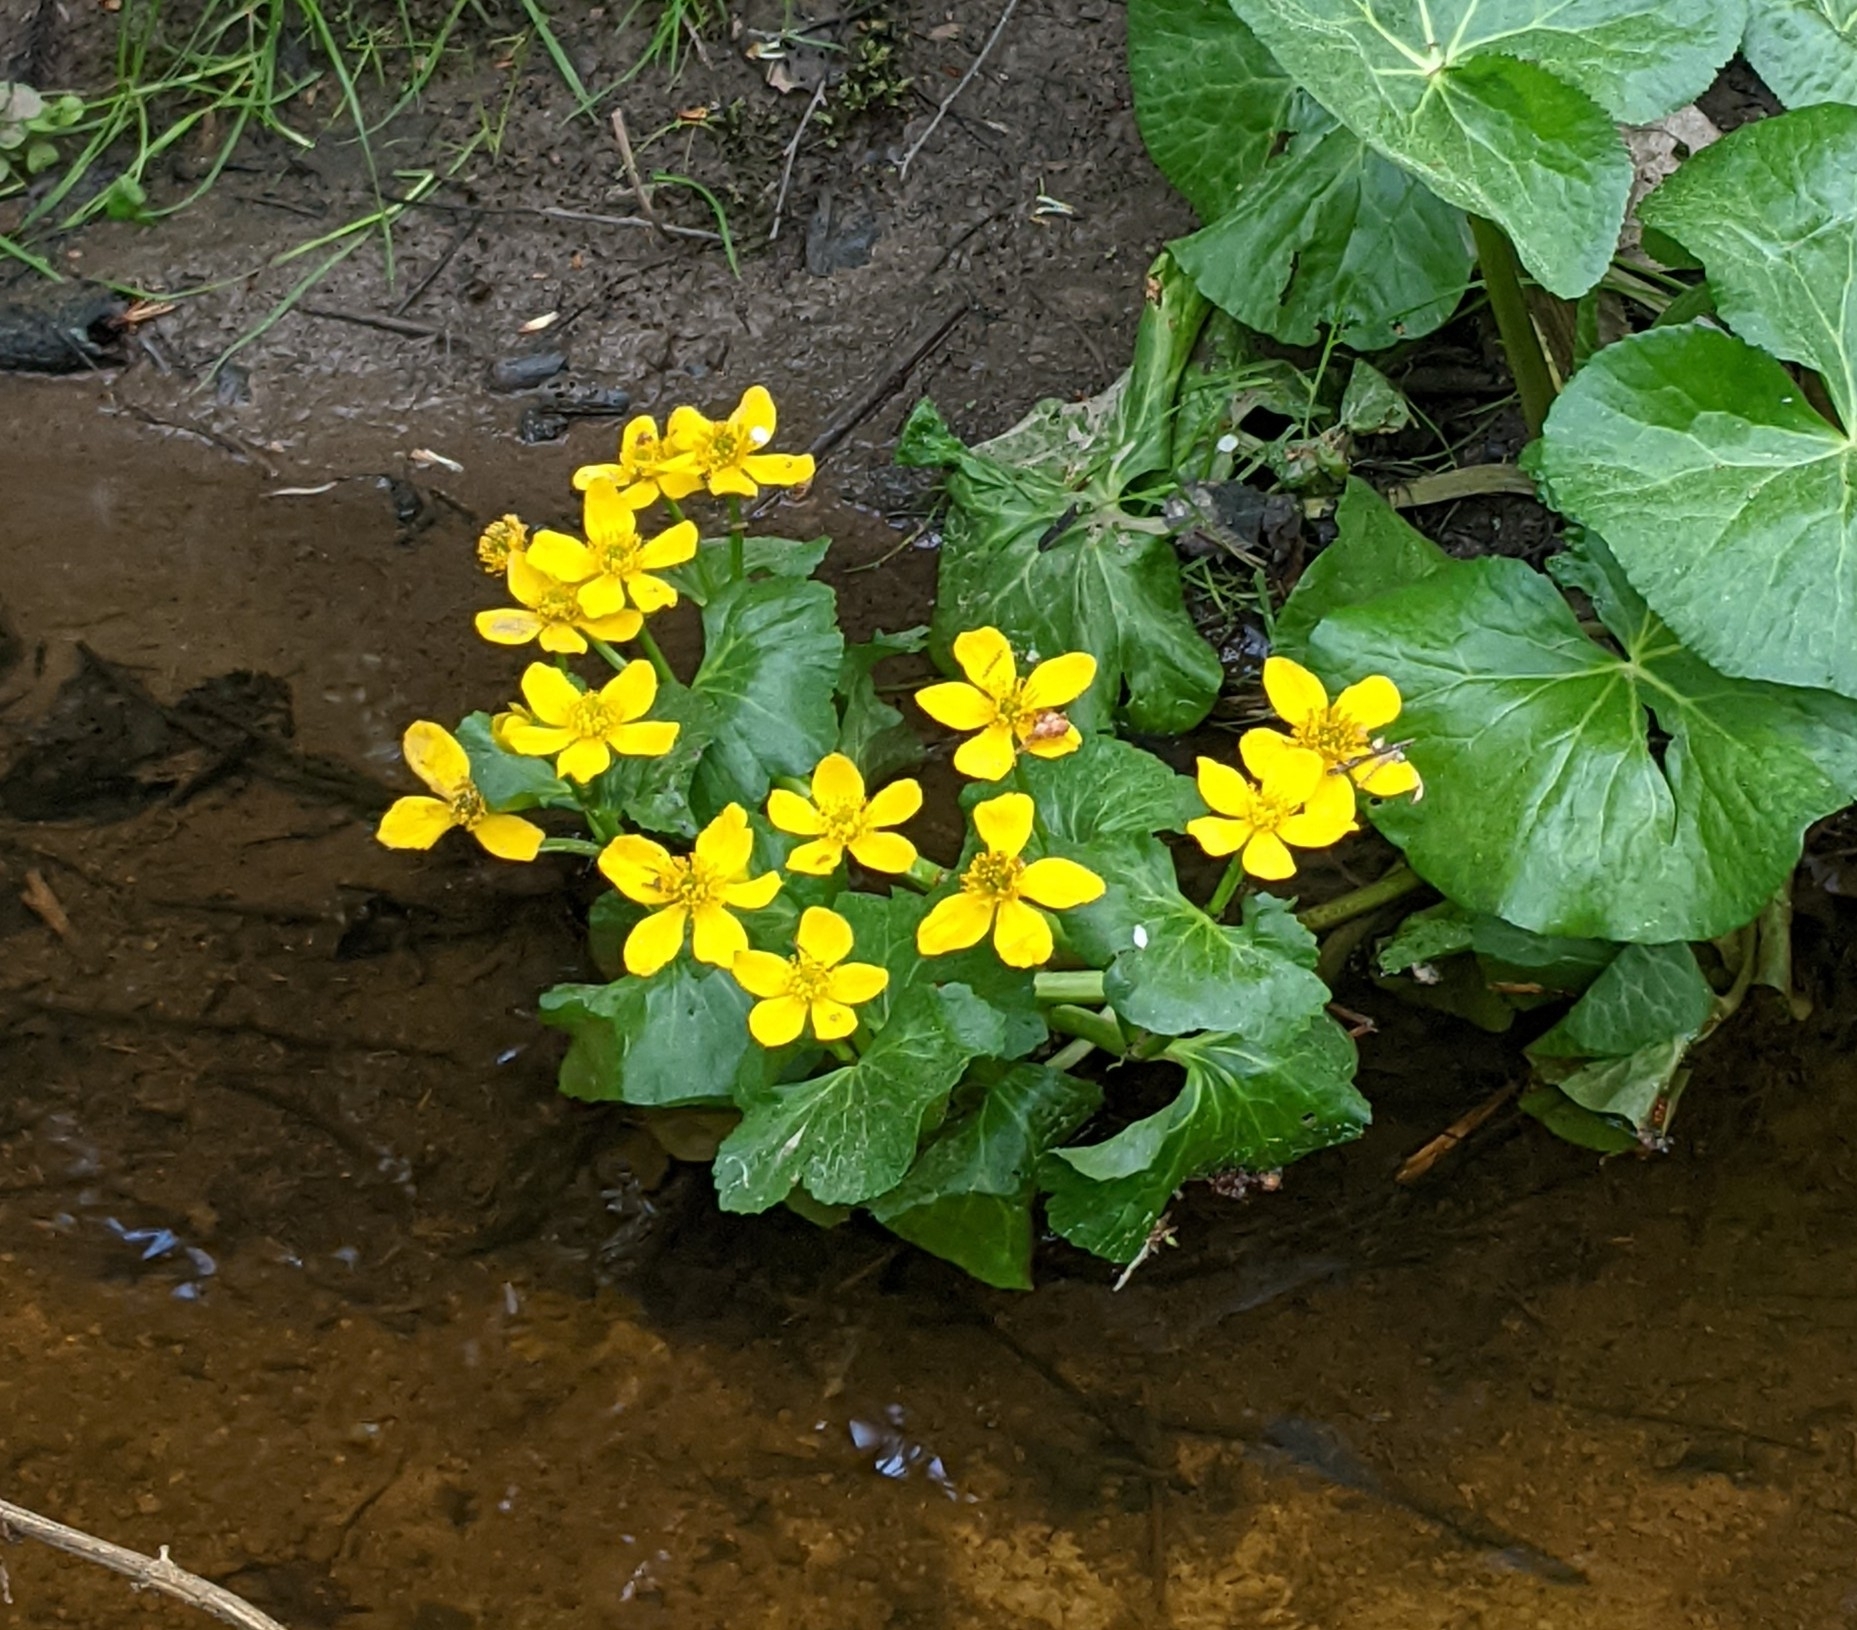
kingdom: Plantae
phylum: Tracheophyta
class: Magnoliopsida
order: Ranunculales
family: Ranunculaceae
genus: Caltha
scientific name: Caltha palustris
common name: Marsh marigold
